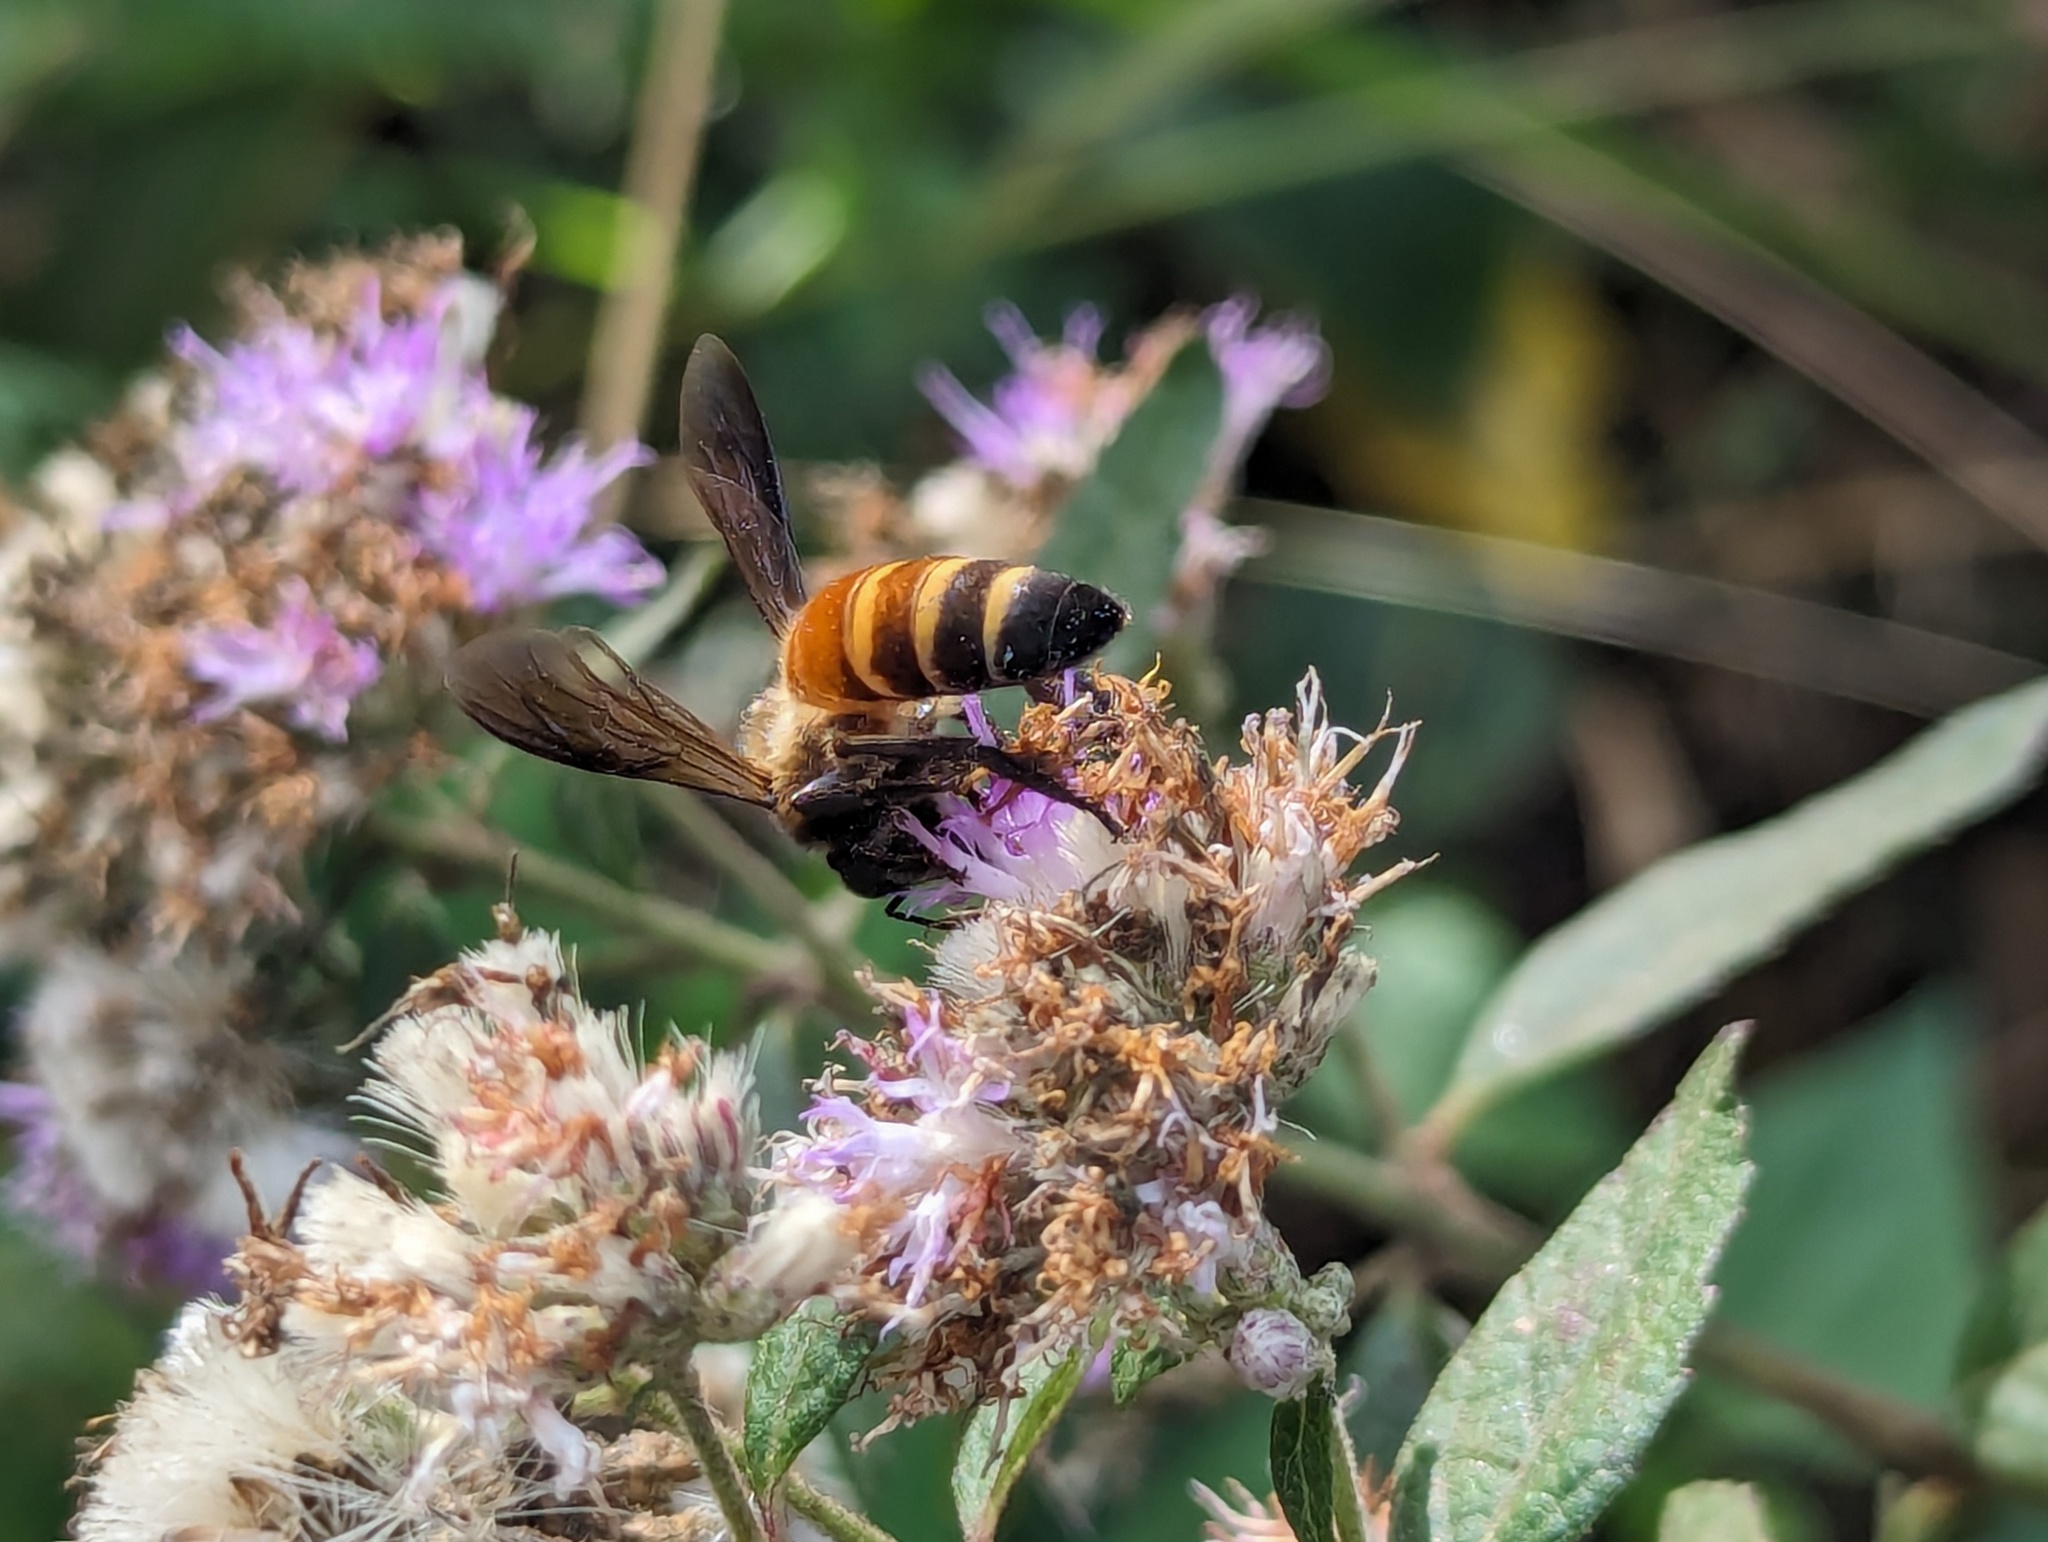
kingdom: Animalia
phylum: Arthropoda
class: Insecta
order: Hymenoptera
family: Apidae
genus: Apis
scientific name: Apis dorsata
